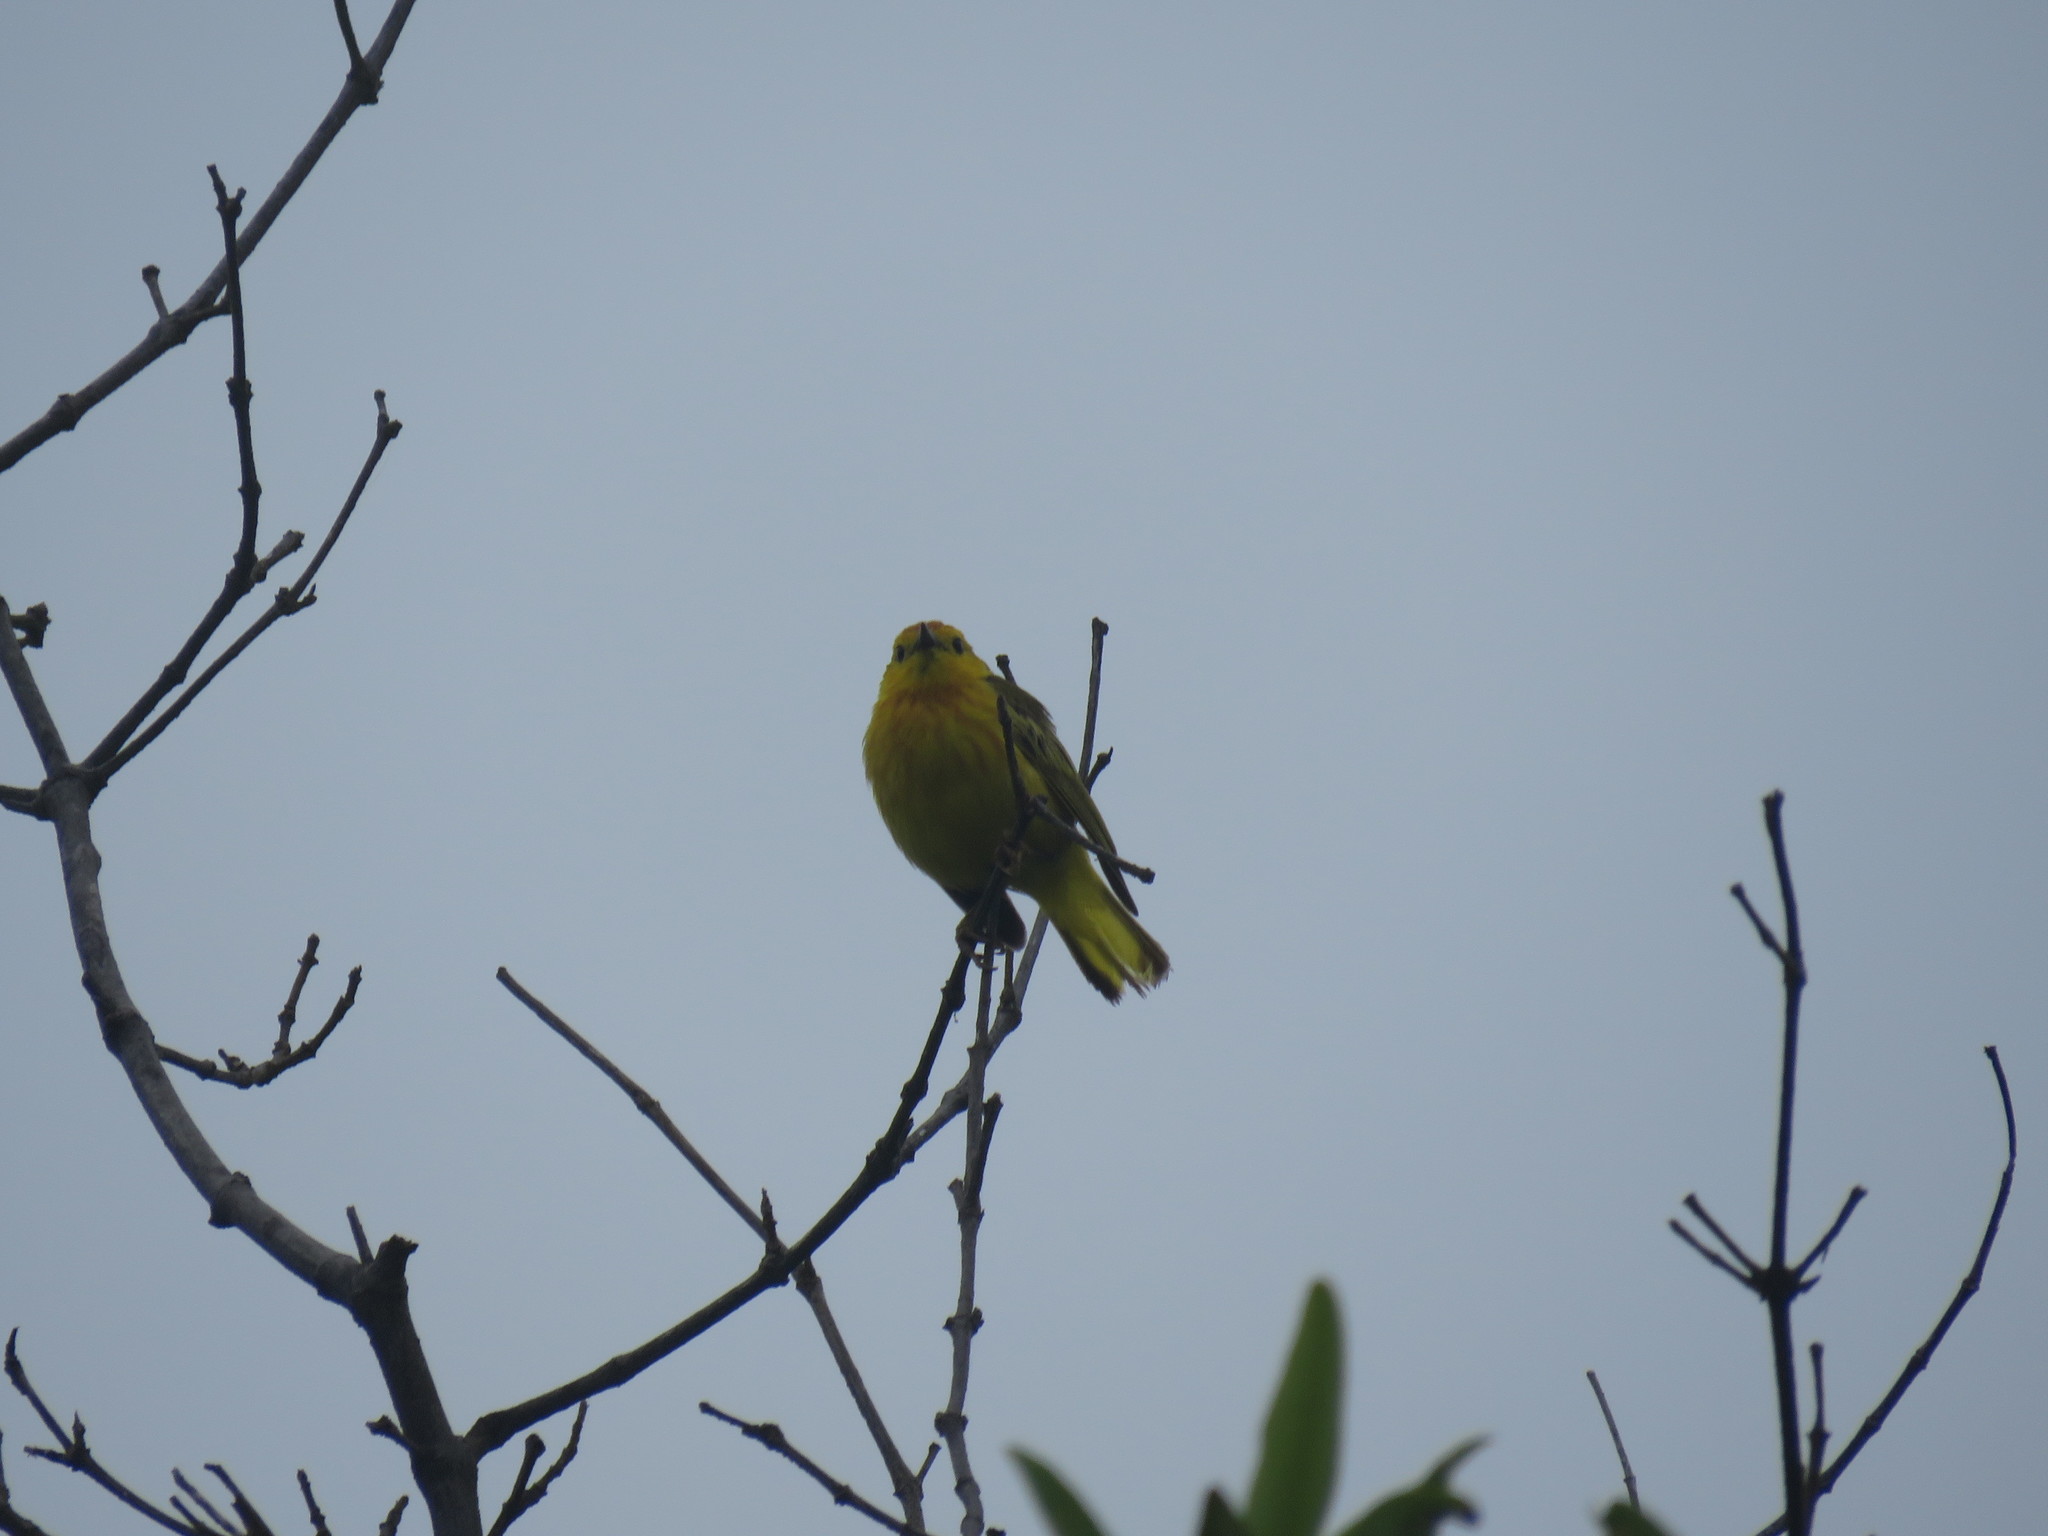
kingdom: Animalia
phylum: Chordata
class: Aves
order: Passeriformes
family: Parulidae
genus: Setophaga
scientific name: Setophaga petechia
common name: Yellow warbler
